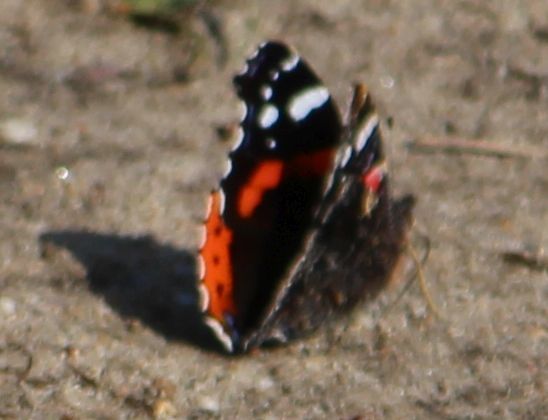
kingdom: Animalia
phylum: Arthropoda
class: Insecta
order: Lepidoptera
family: Nymphalidae
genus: Vanessa
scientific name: Vanessa atalanta
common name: Red admiral
